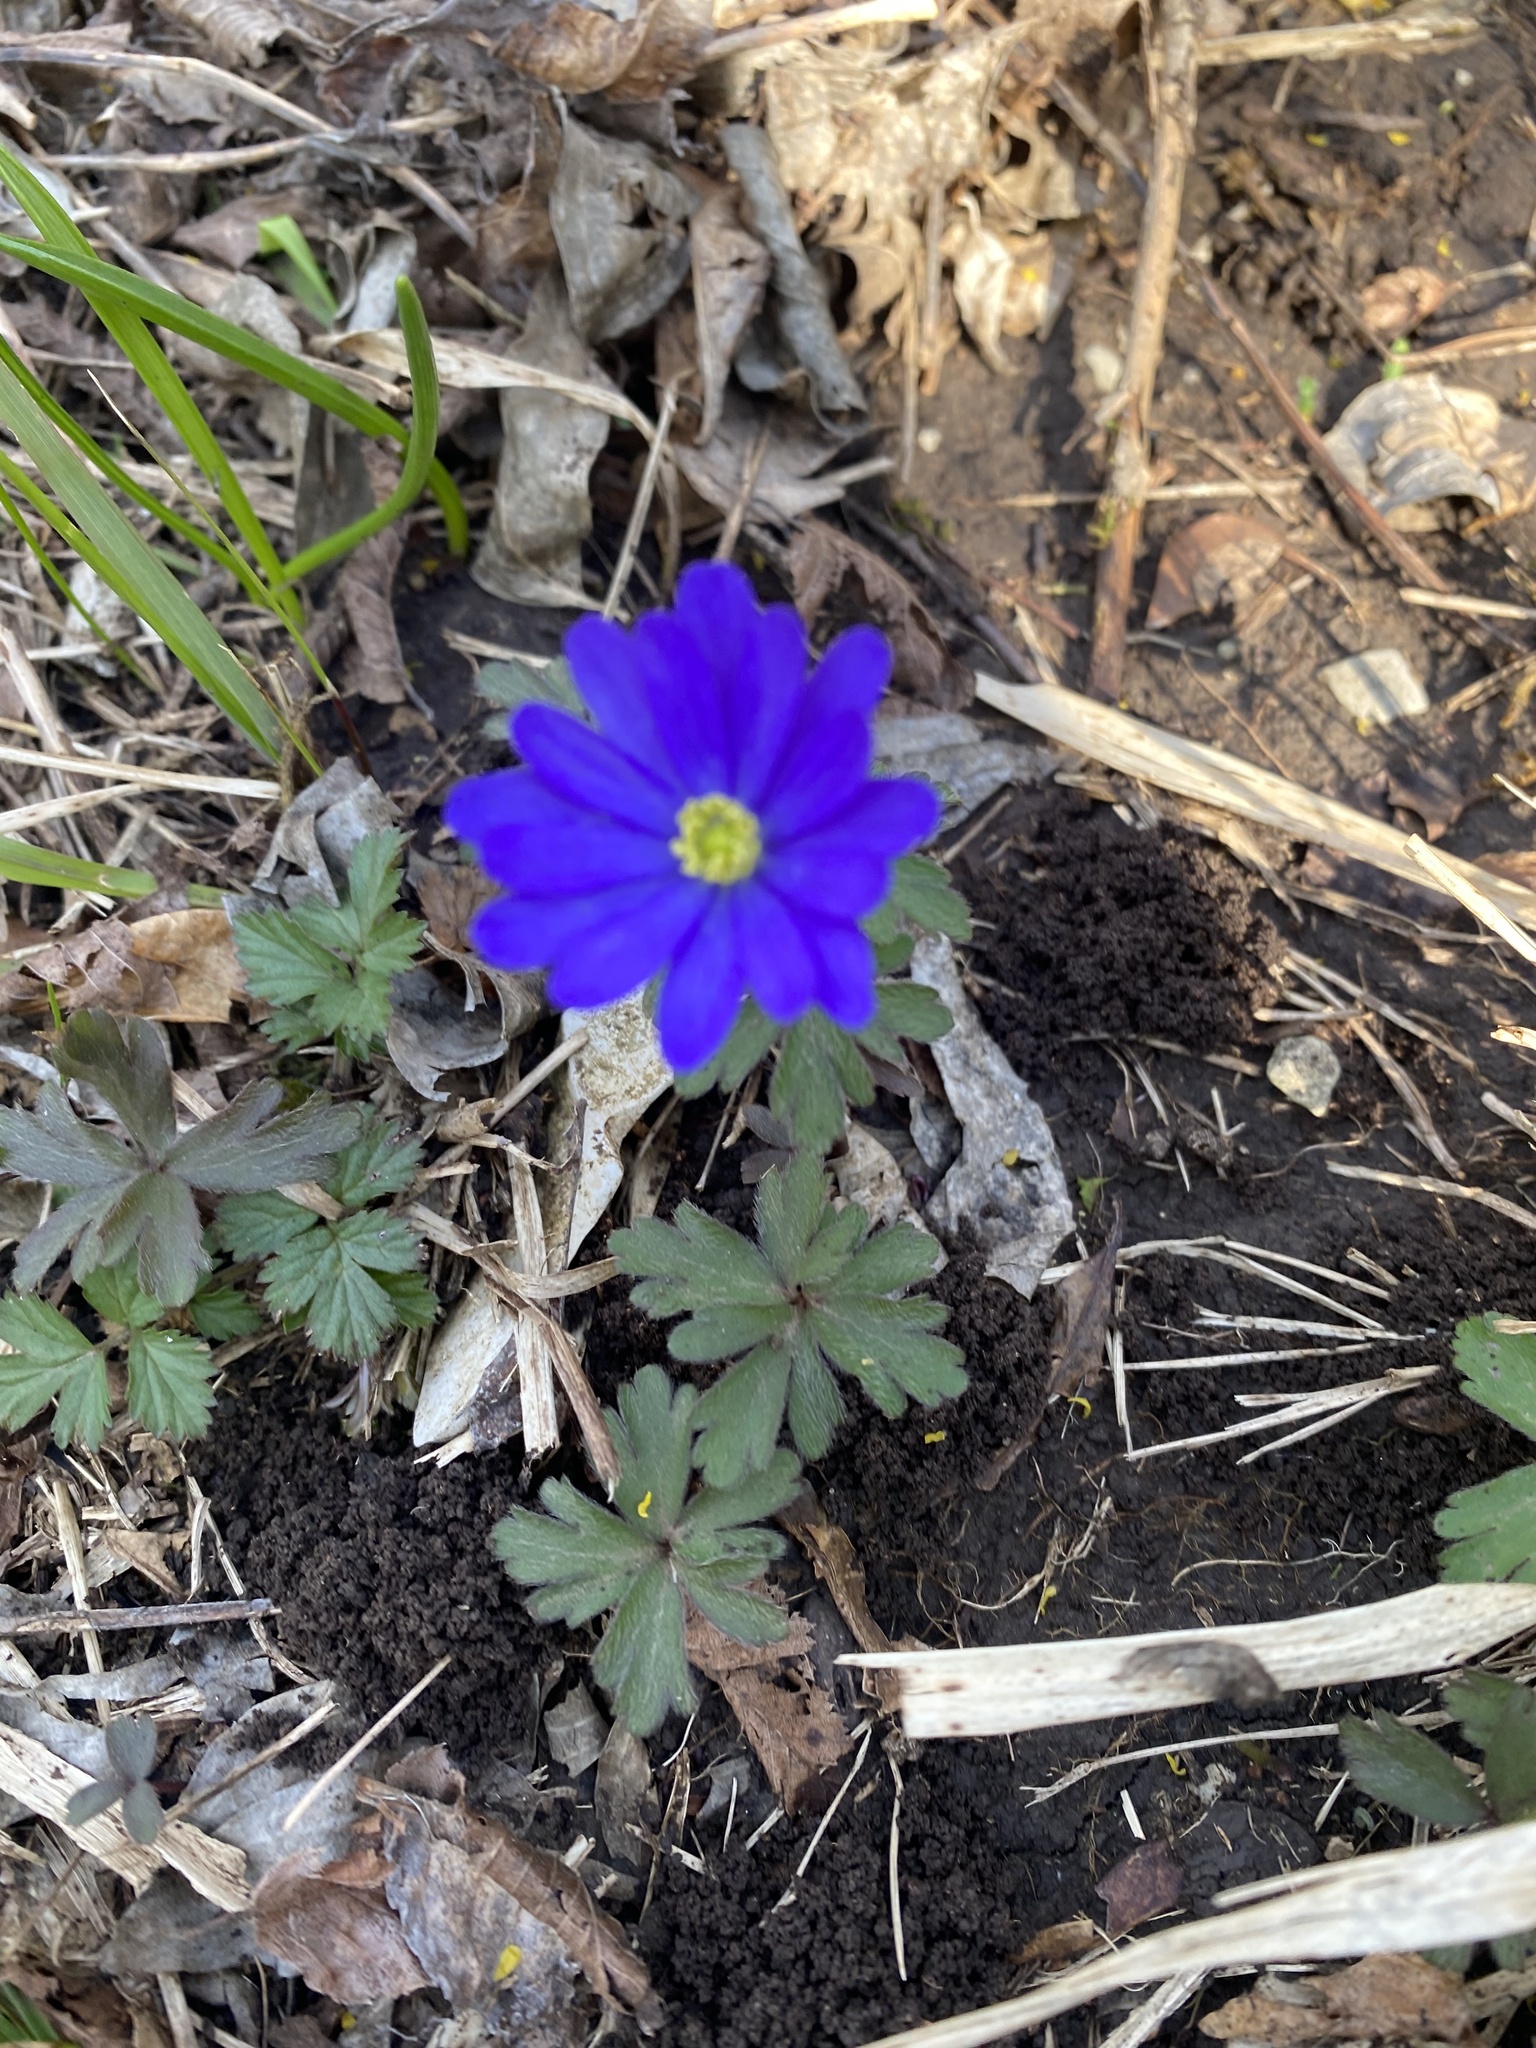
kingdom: Plantae
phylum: Tracheophyta
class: Magnoliopsida
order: Ranunculales
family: Ranunculaceae
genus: Anemone
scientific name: Anemone blanda
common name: Balkan anemone
